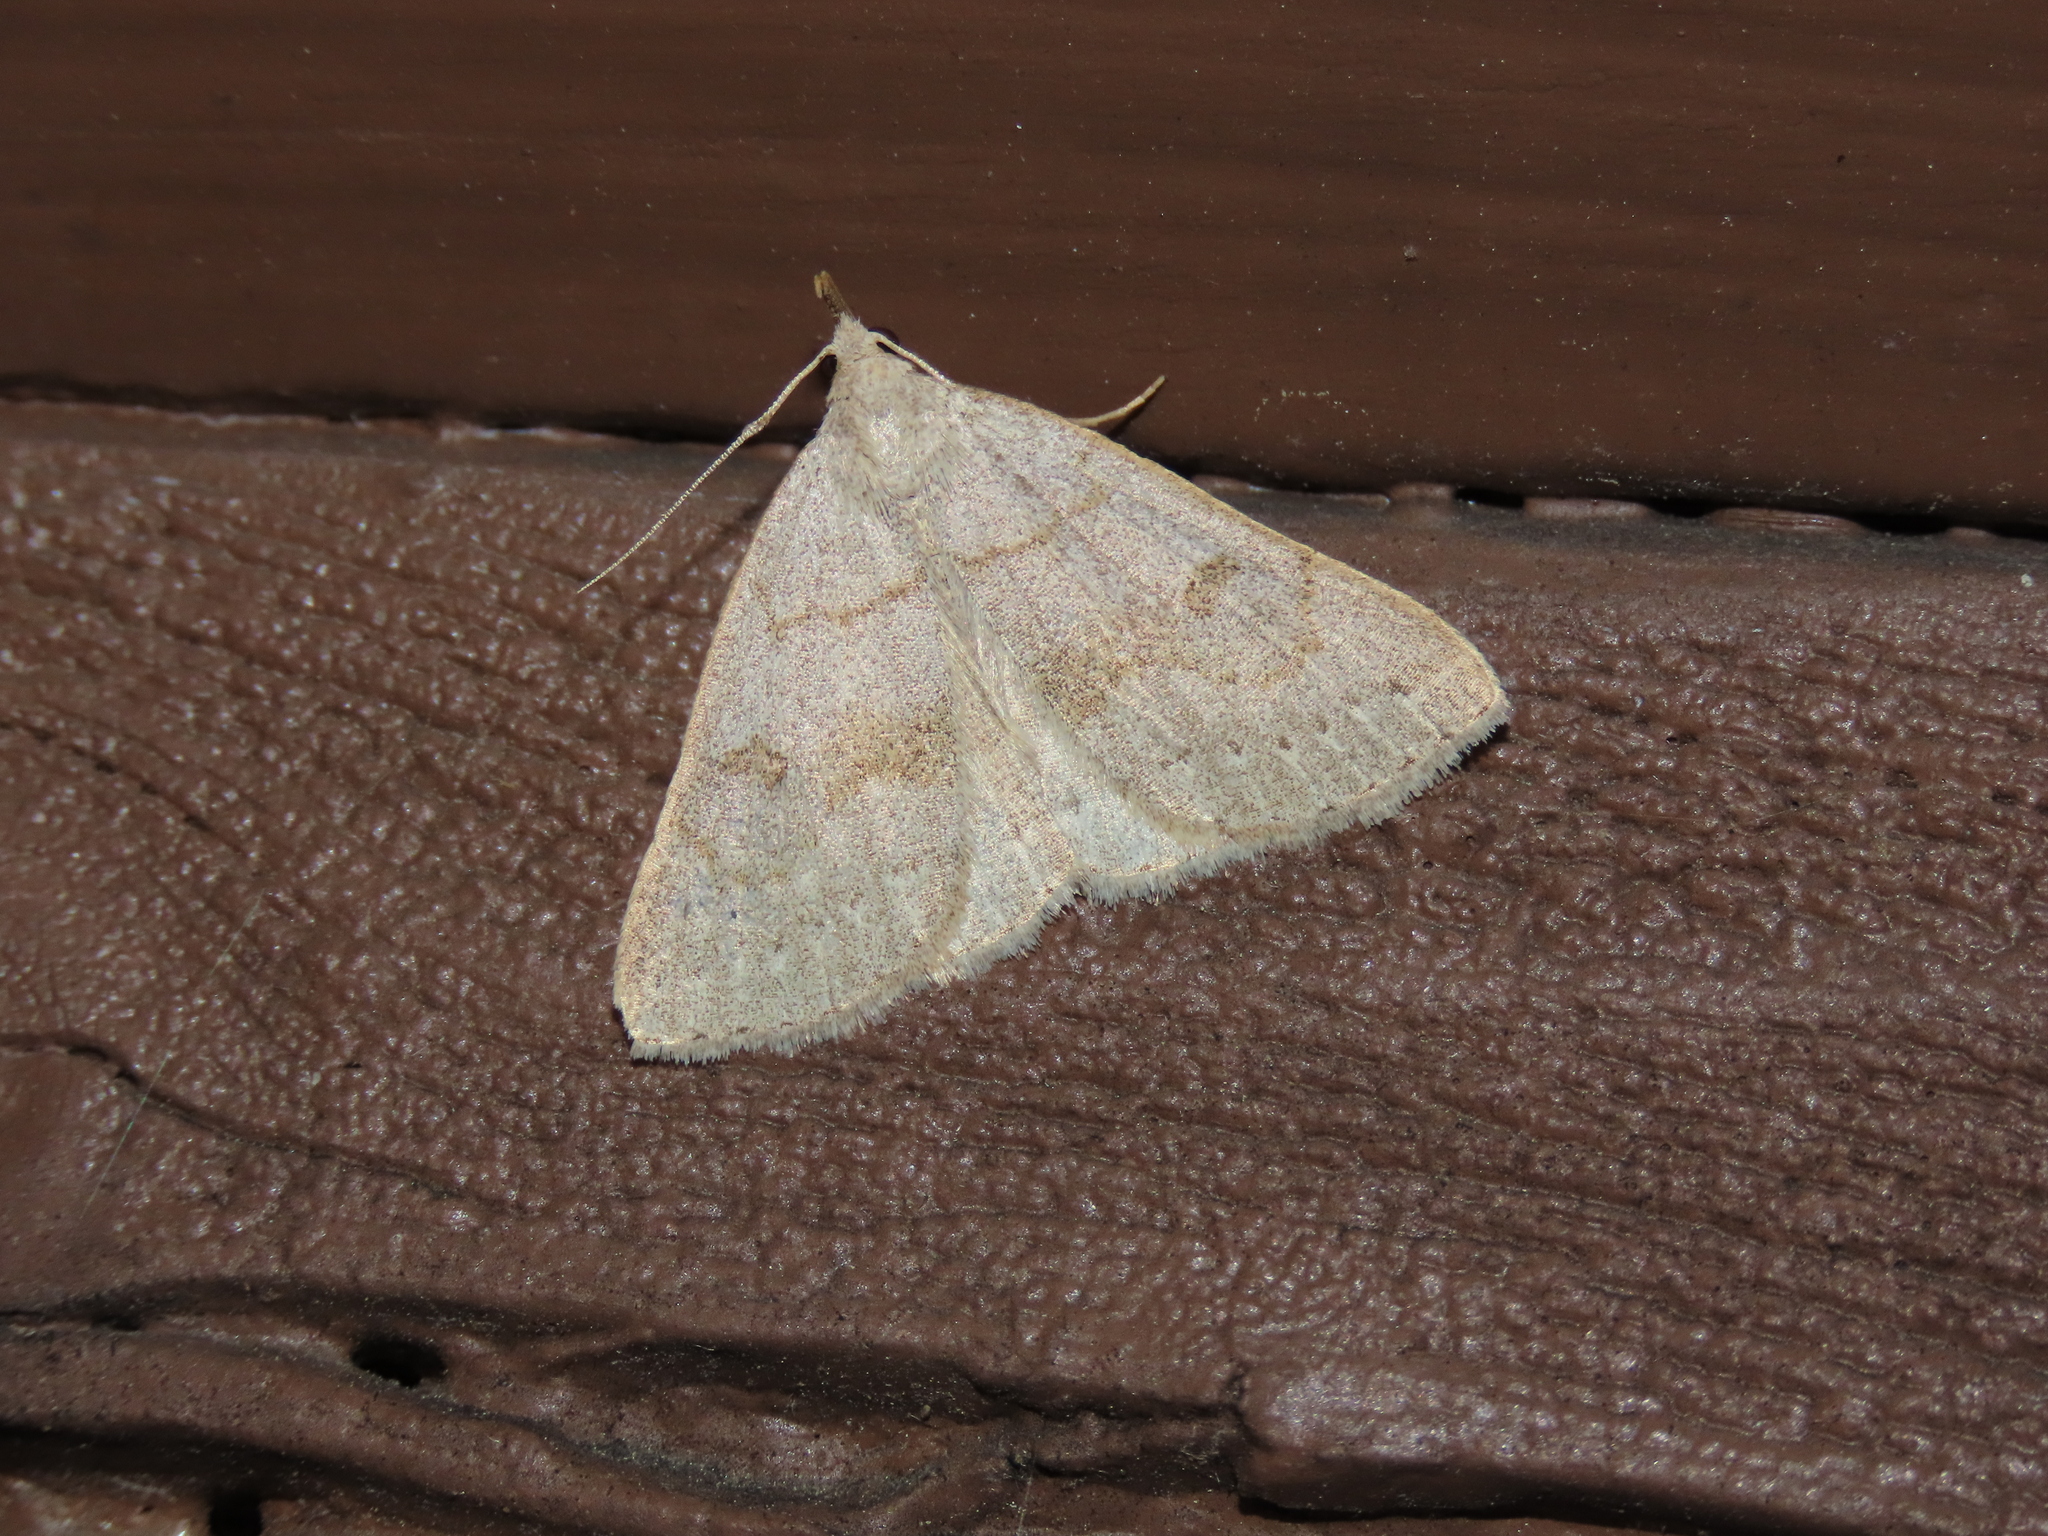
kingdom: Animalia
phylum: Arthropoda
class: Insecta
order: Lepidoptera
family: Erebidae
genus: Macrochilo
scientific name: Macrochilo morbidalis
